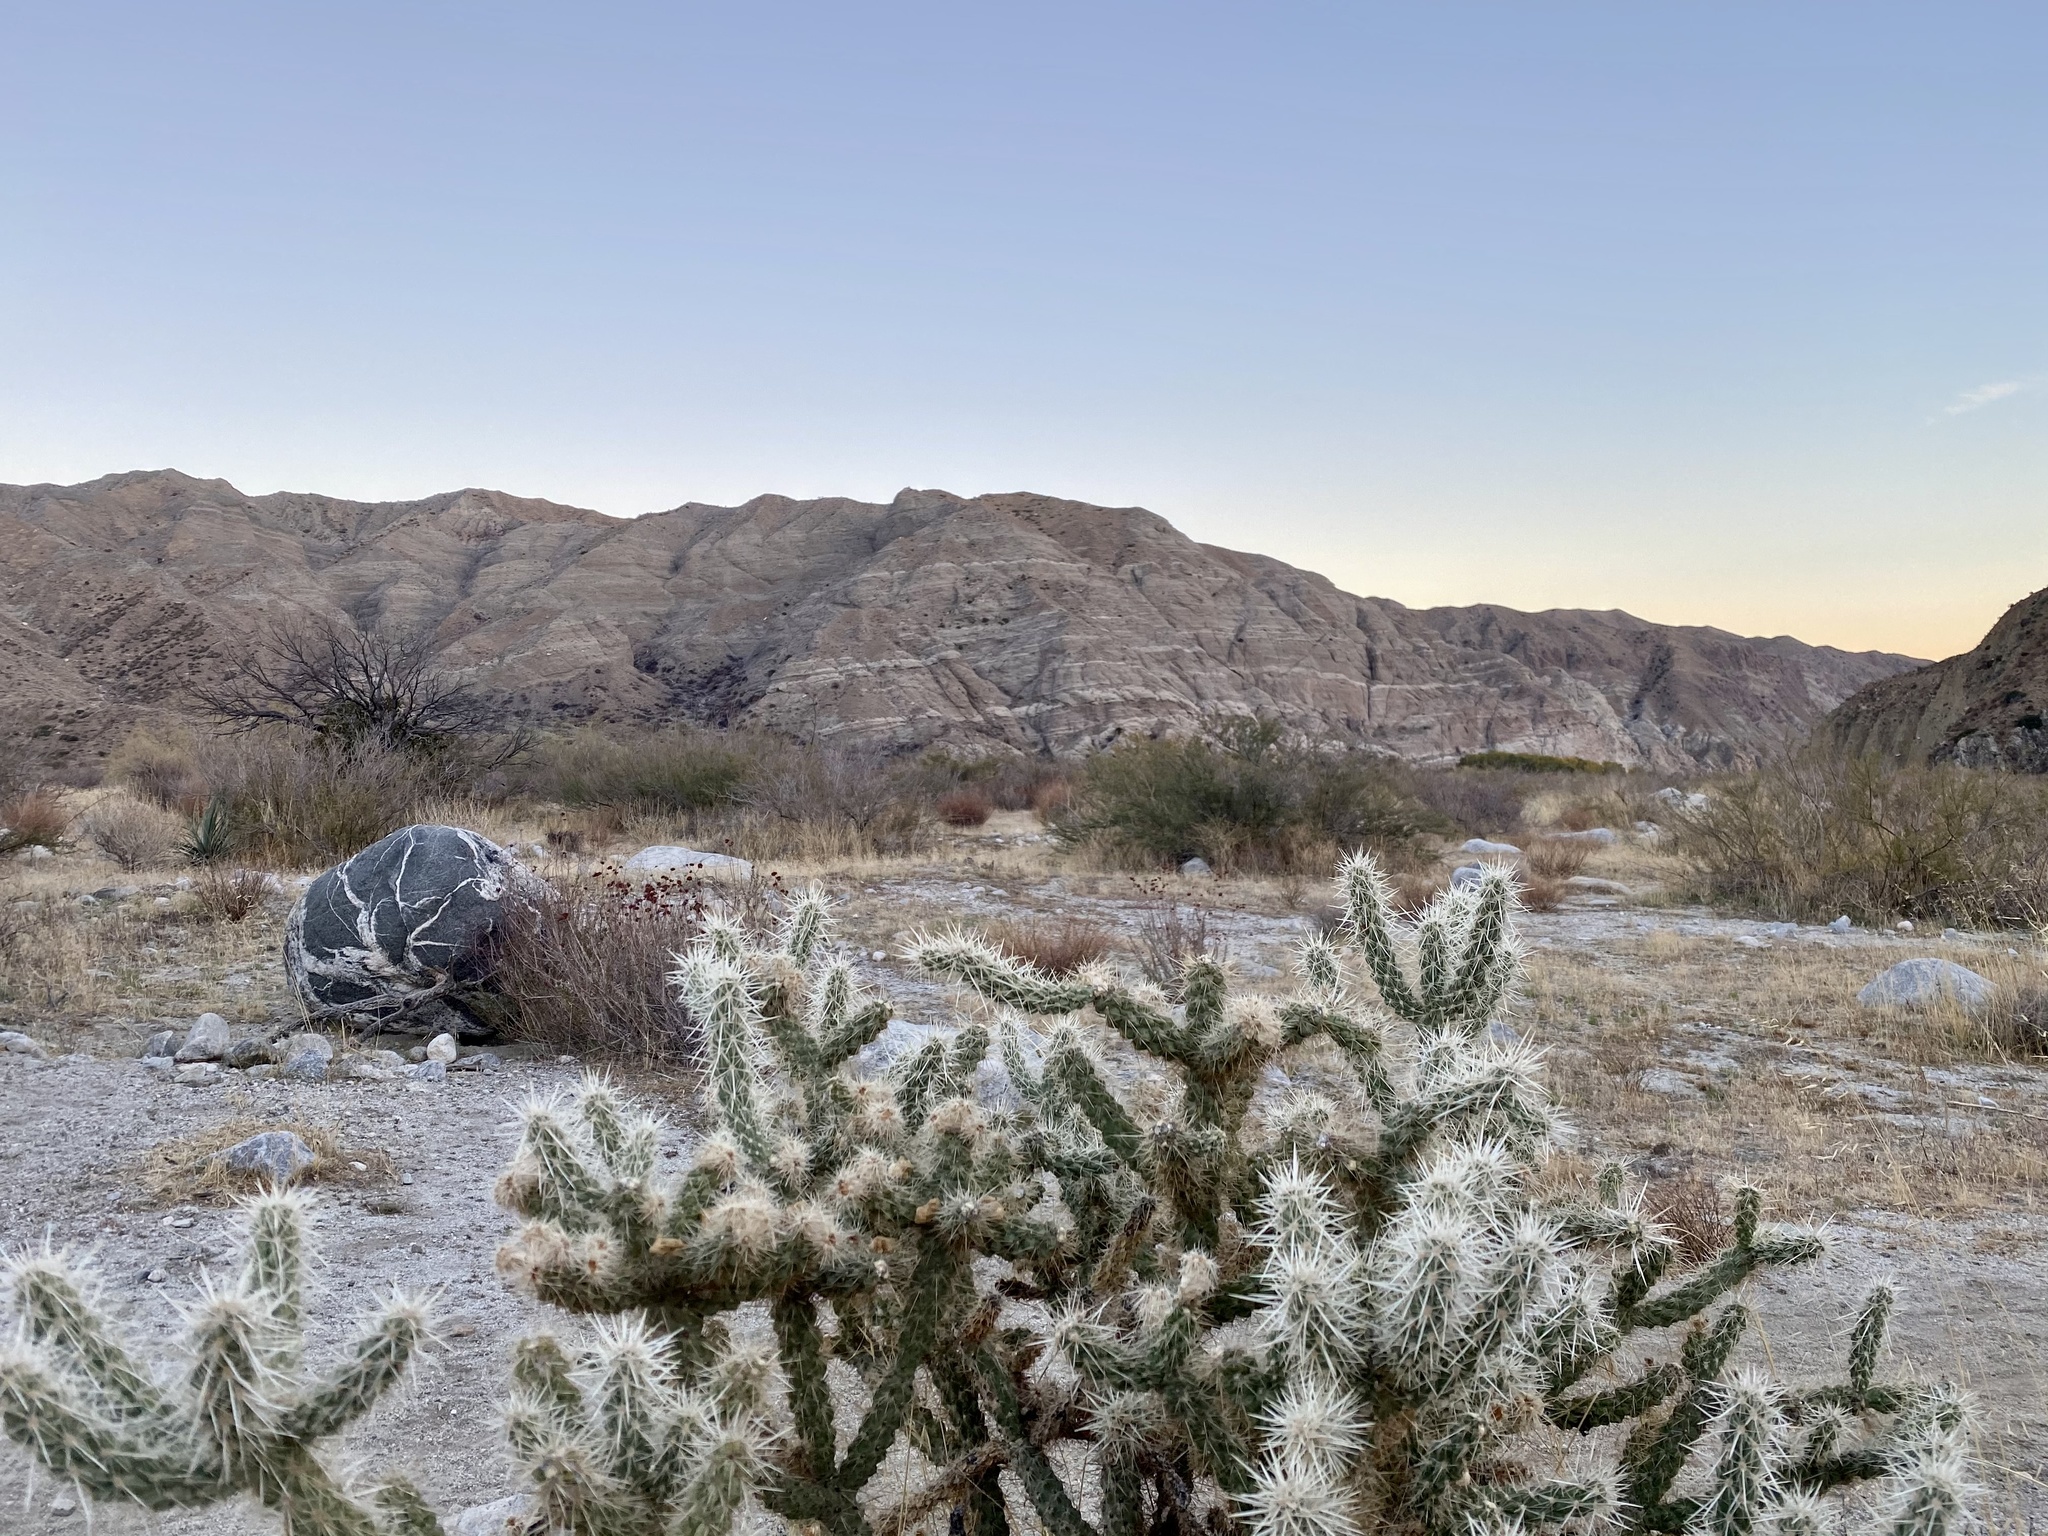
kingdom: Plantae
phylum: Tracheophyta
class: Magnoliopsida
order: Caryophyllales
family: Cactaceae
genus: Cylindropuntia
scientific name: Cylindropuntia echinocarpa
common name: Ground cholla
